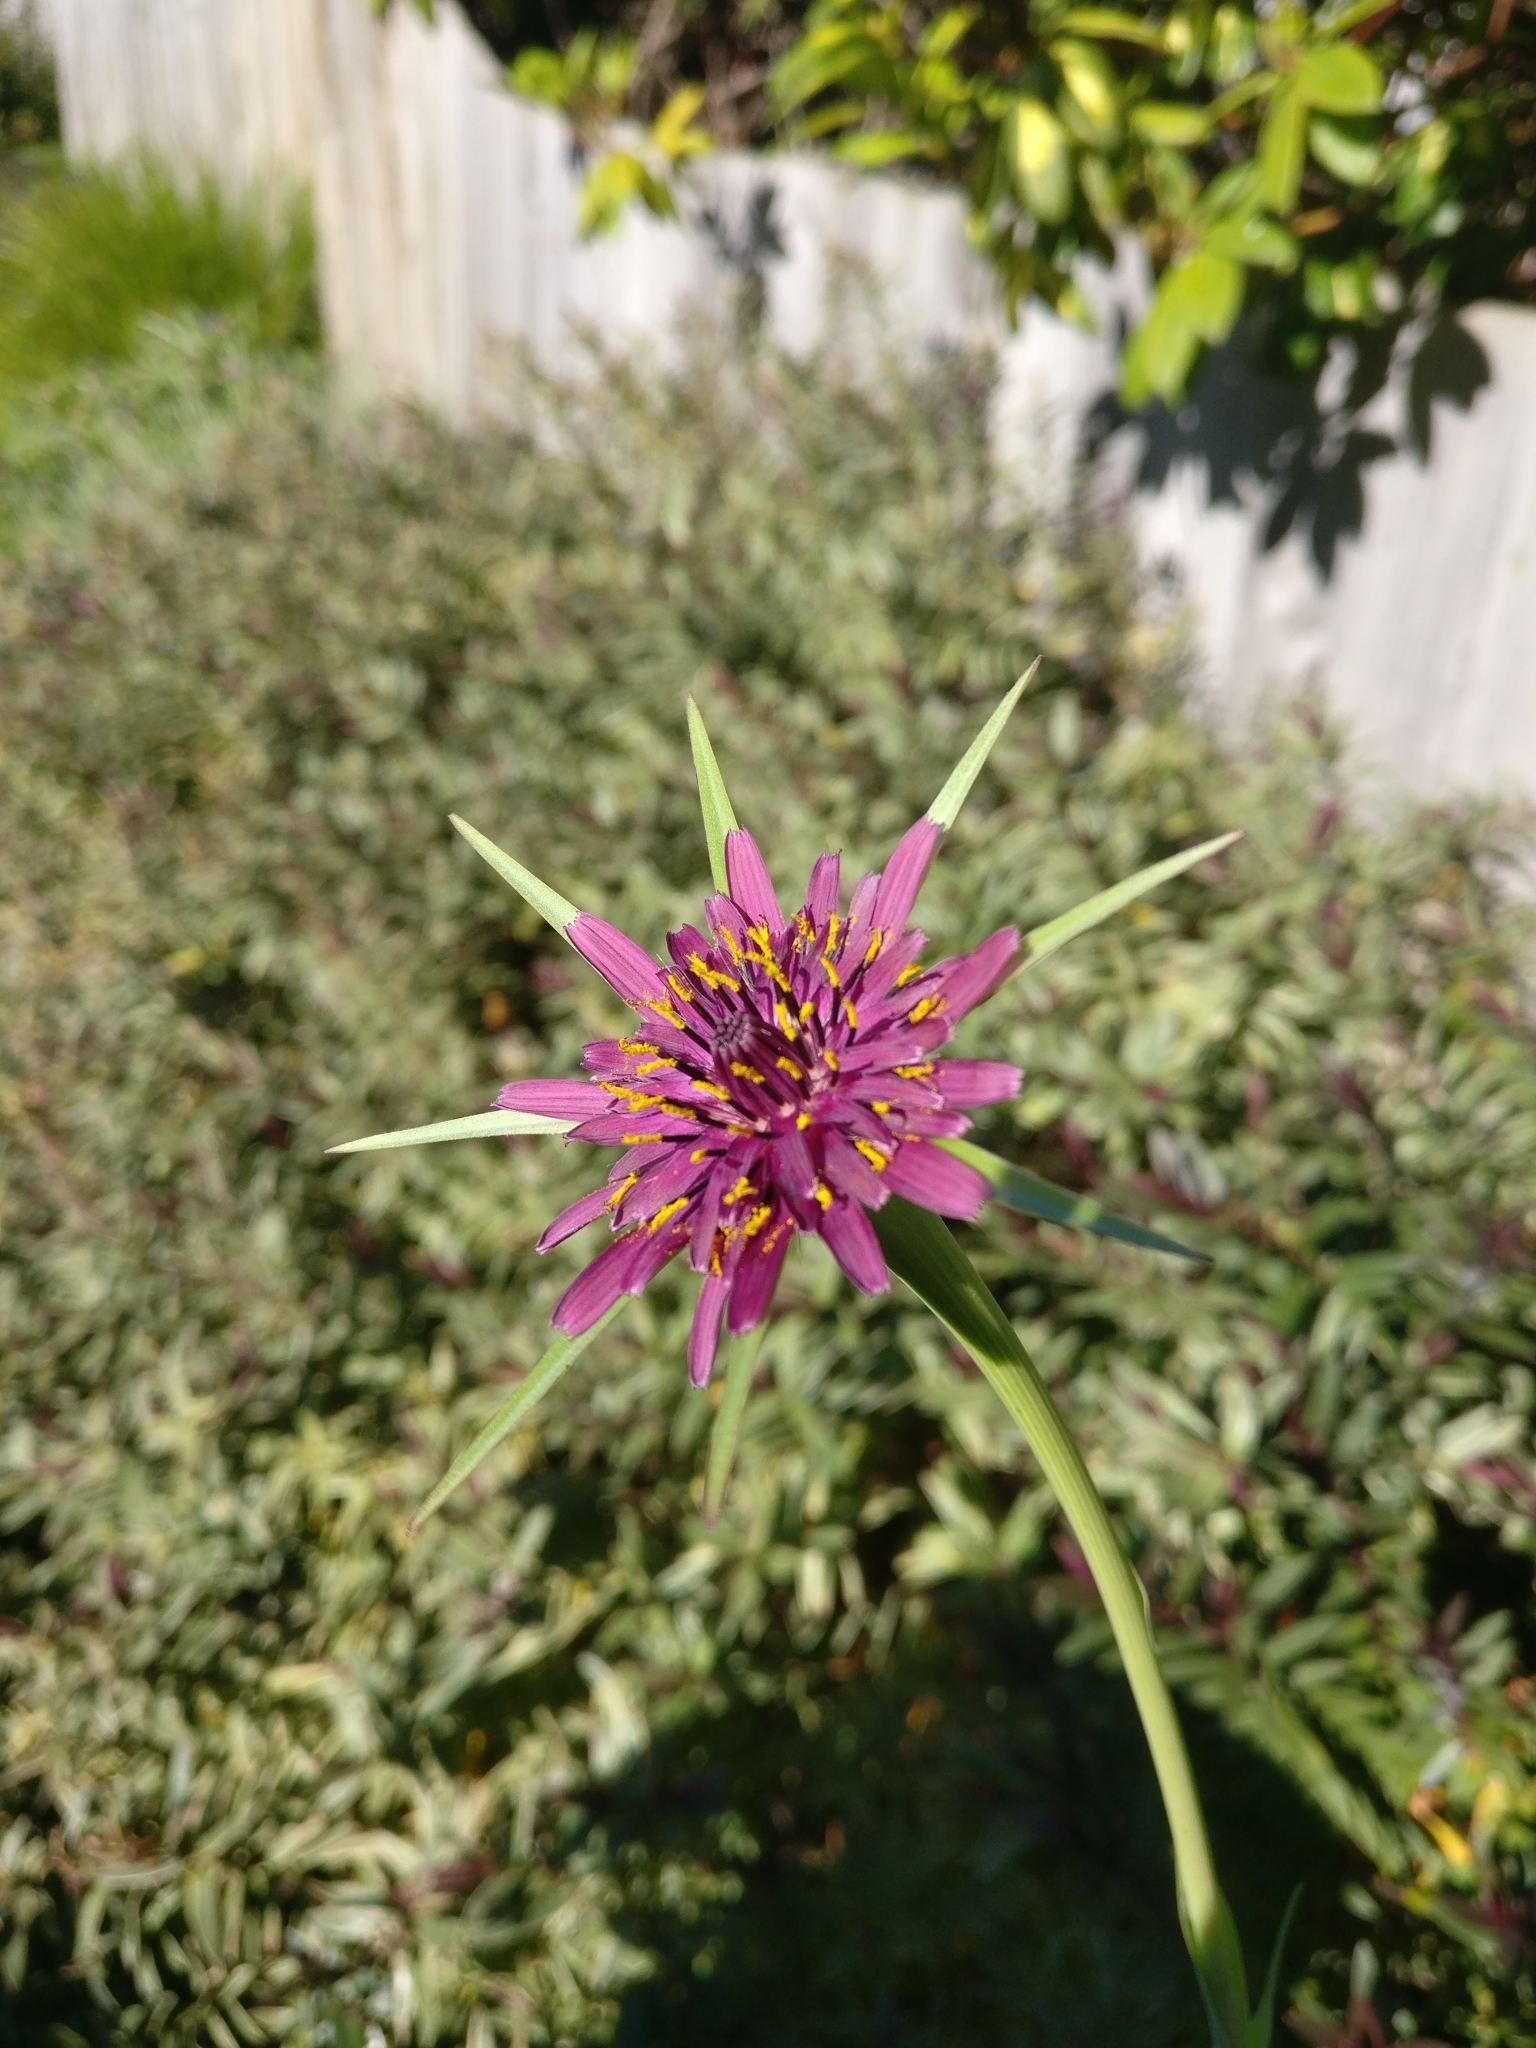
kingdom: Plantae
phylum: Tracheophyta
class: Magnoliopsida
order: Asterales
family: Asteraceae
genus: Tragopogon
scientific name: Tragopogon porrifolius
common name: Salsify
